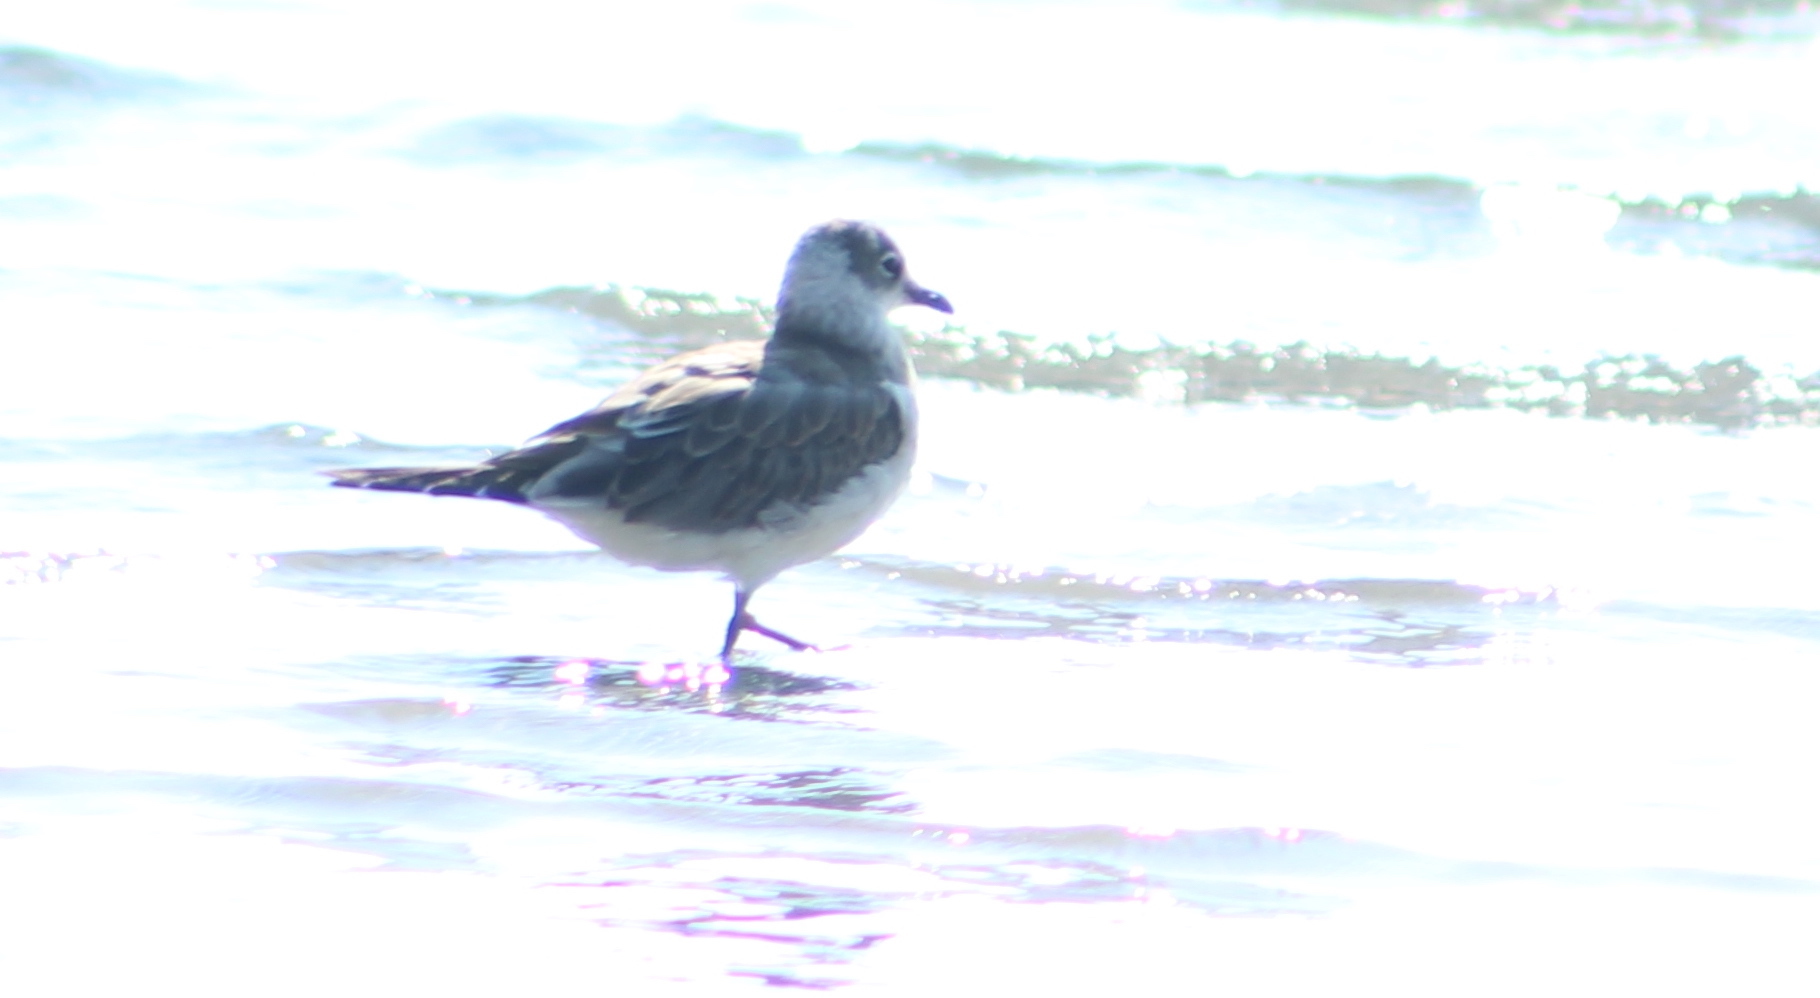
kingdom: Animalia
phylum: Chordata
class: Aves
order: Charadriiformes
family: Laridae
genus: Leucophaeus
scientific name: Leucophaeus pipixcan
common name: Franklin's gull
